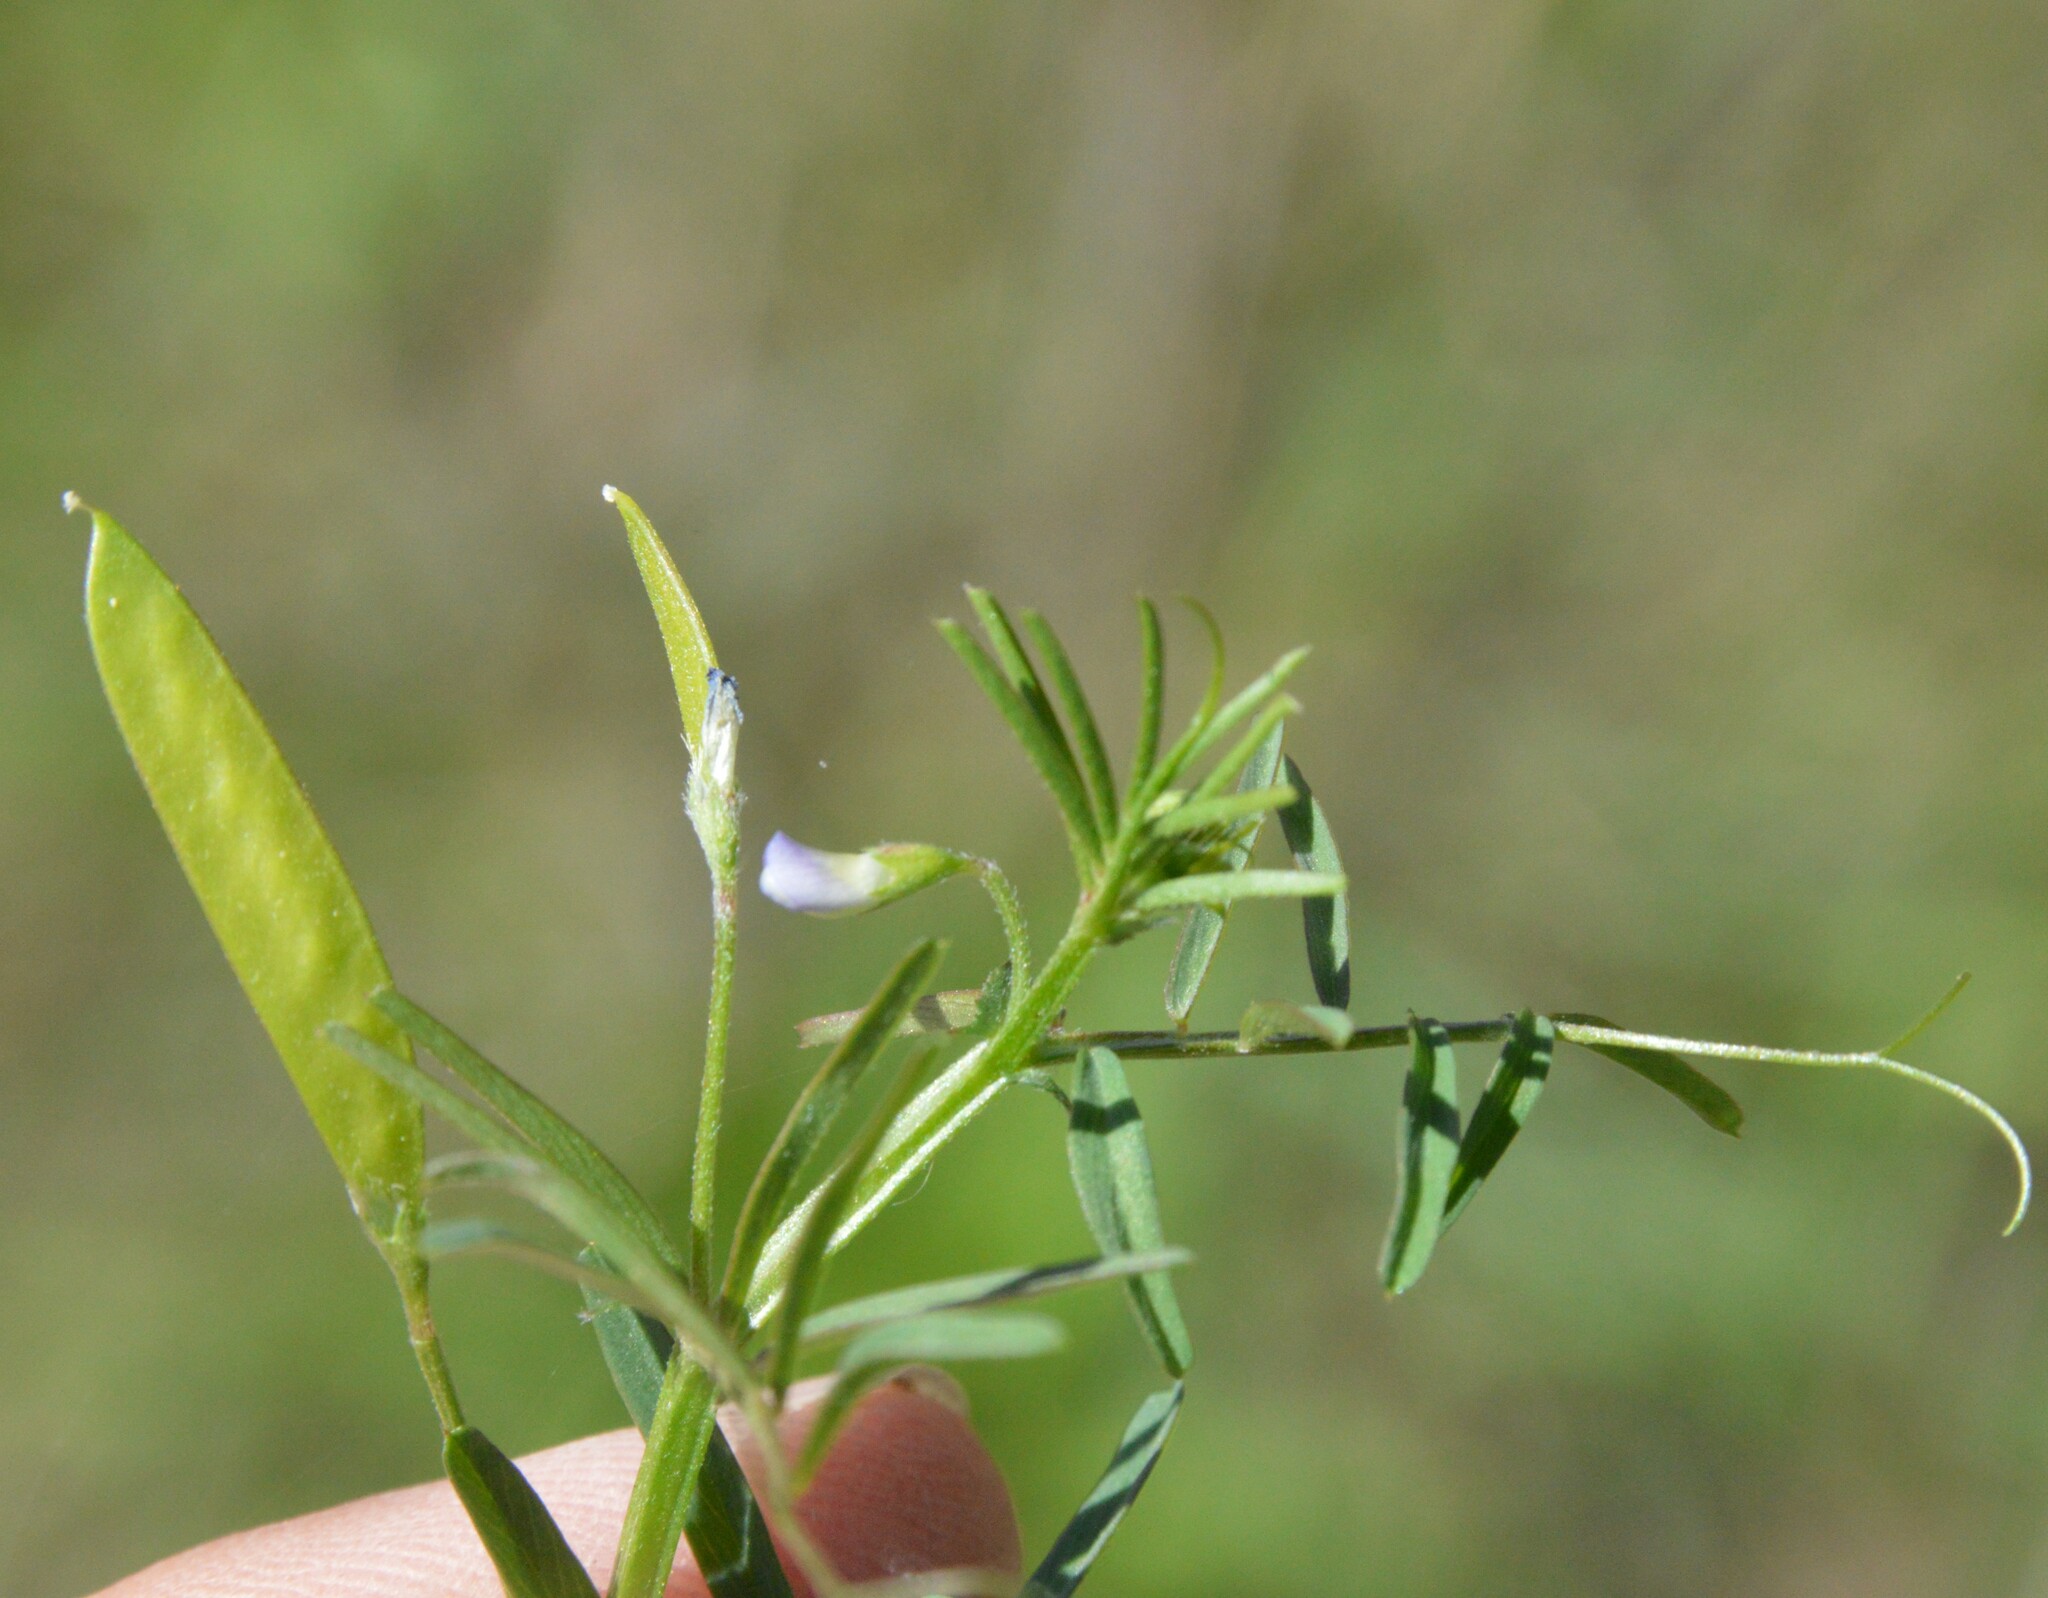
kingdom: Plantae
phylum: Tracheophyta
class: Magnoliopsida
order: Fabales
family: Fabaceae
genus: Vicia
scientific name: Vicia minutiflora
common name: Pygmy-flower vetch
